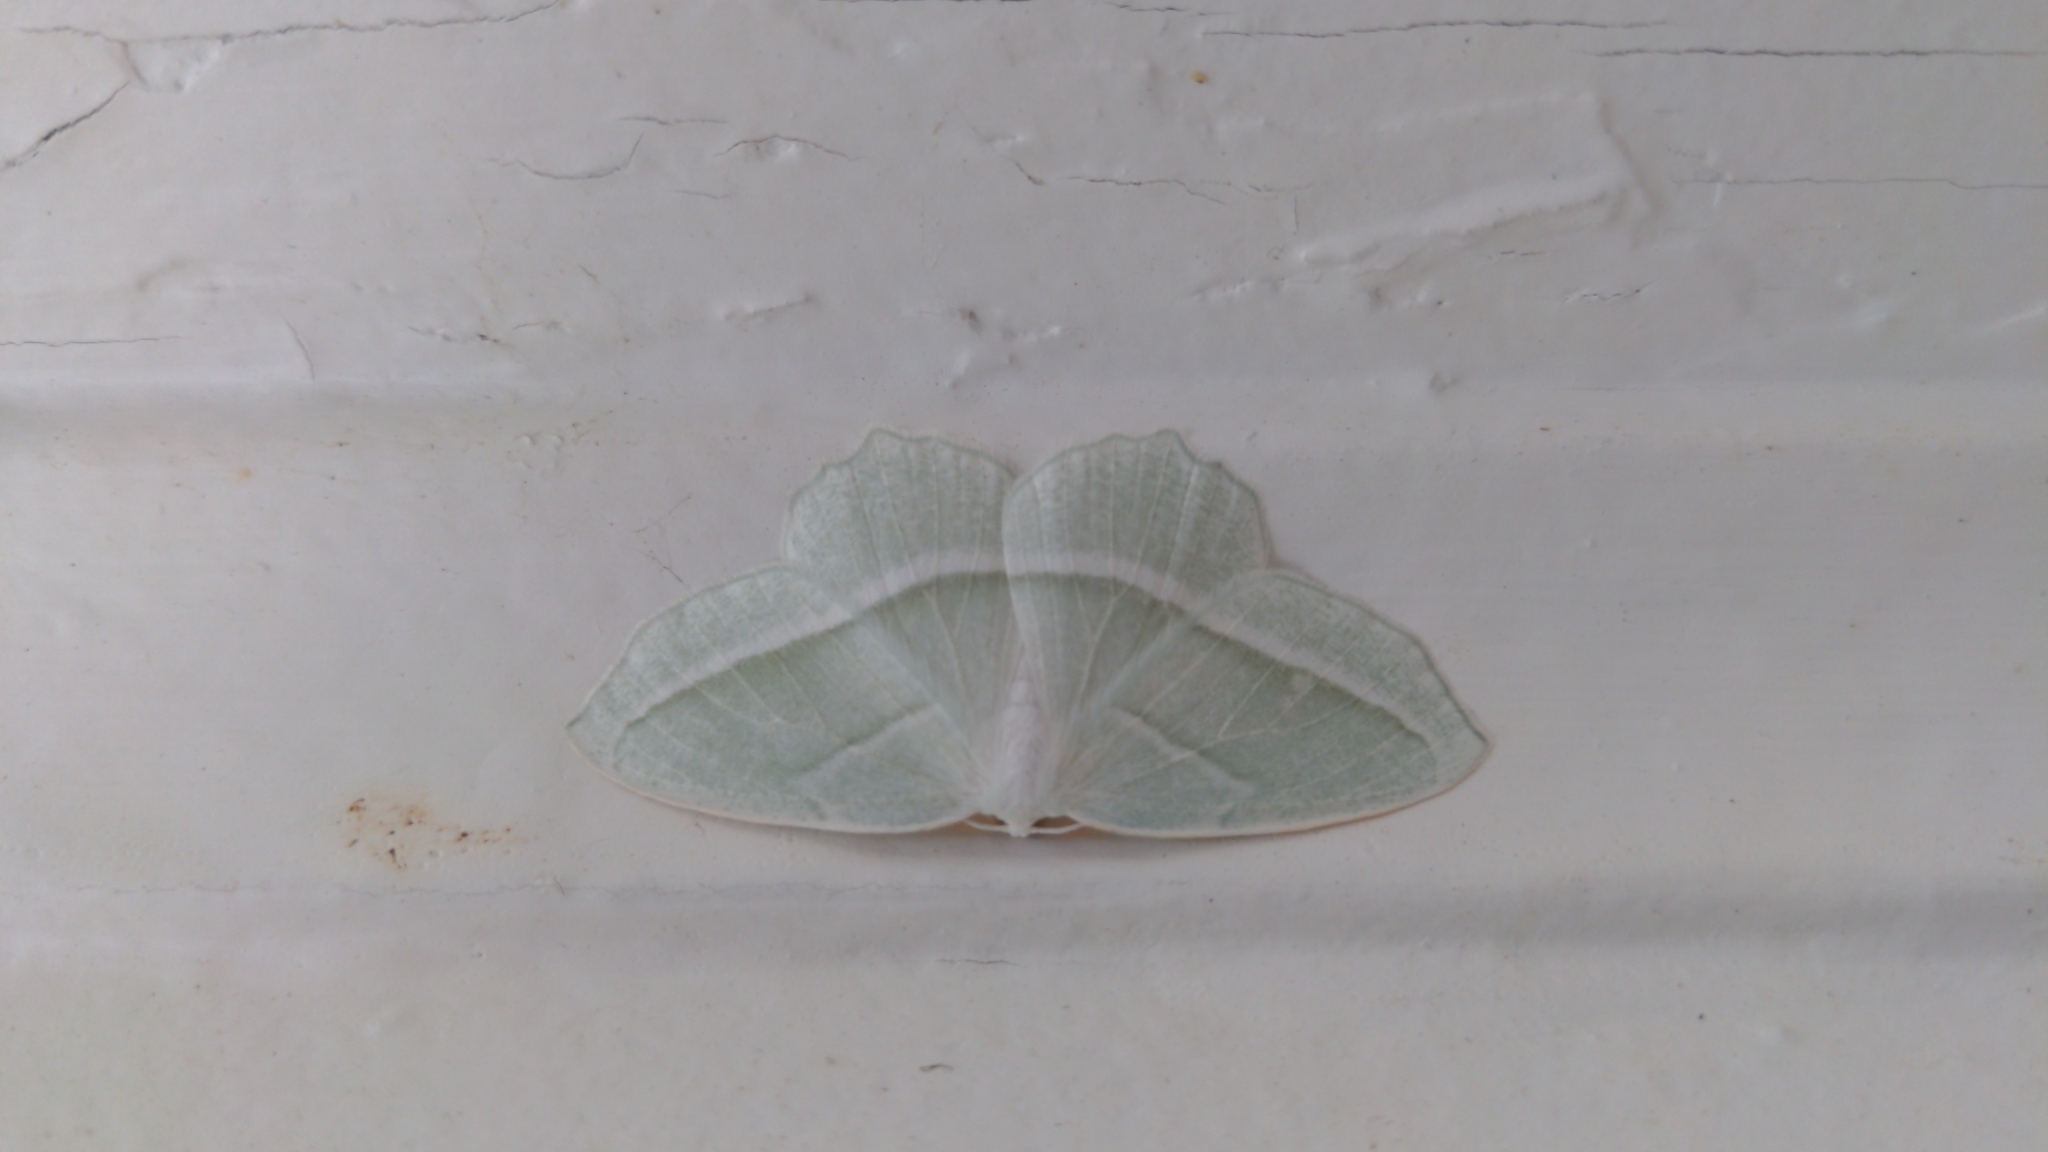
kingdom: Animalia
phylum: Arthropoda
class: Insecta
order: Lepidoptera
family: Geometridae
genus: Campaea
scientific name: Campaea perlata
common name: Fringed looper
